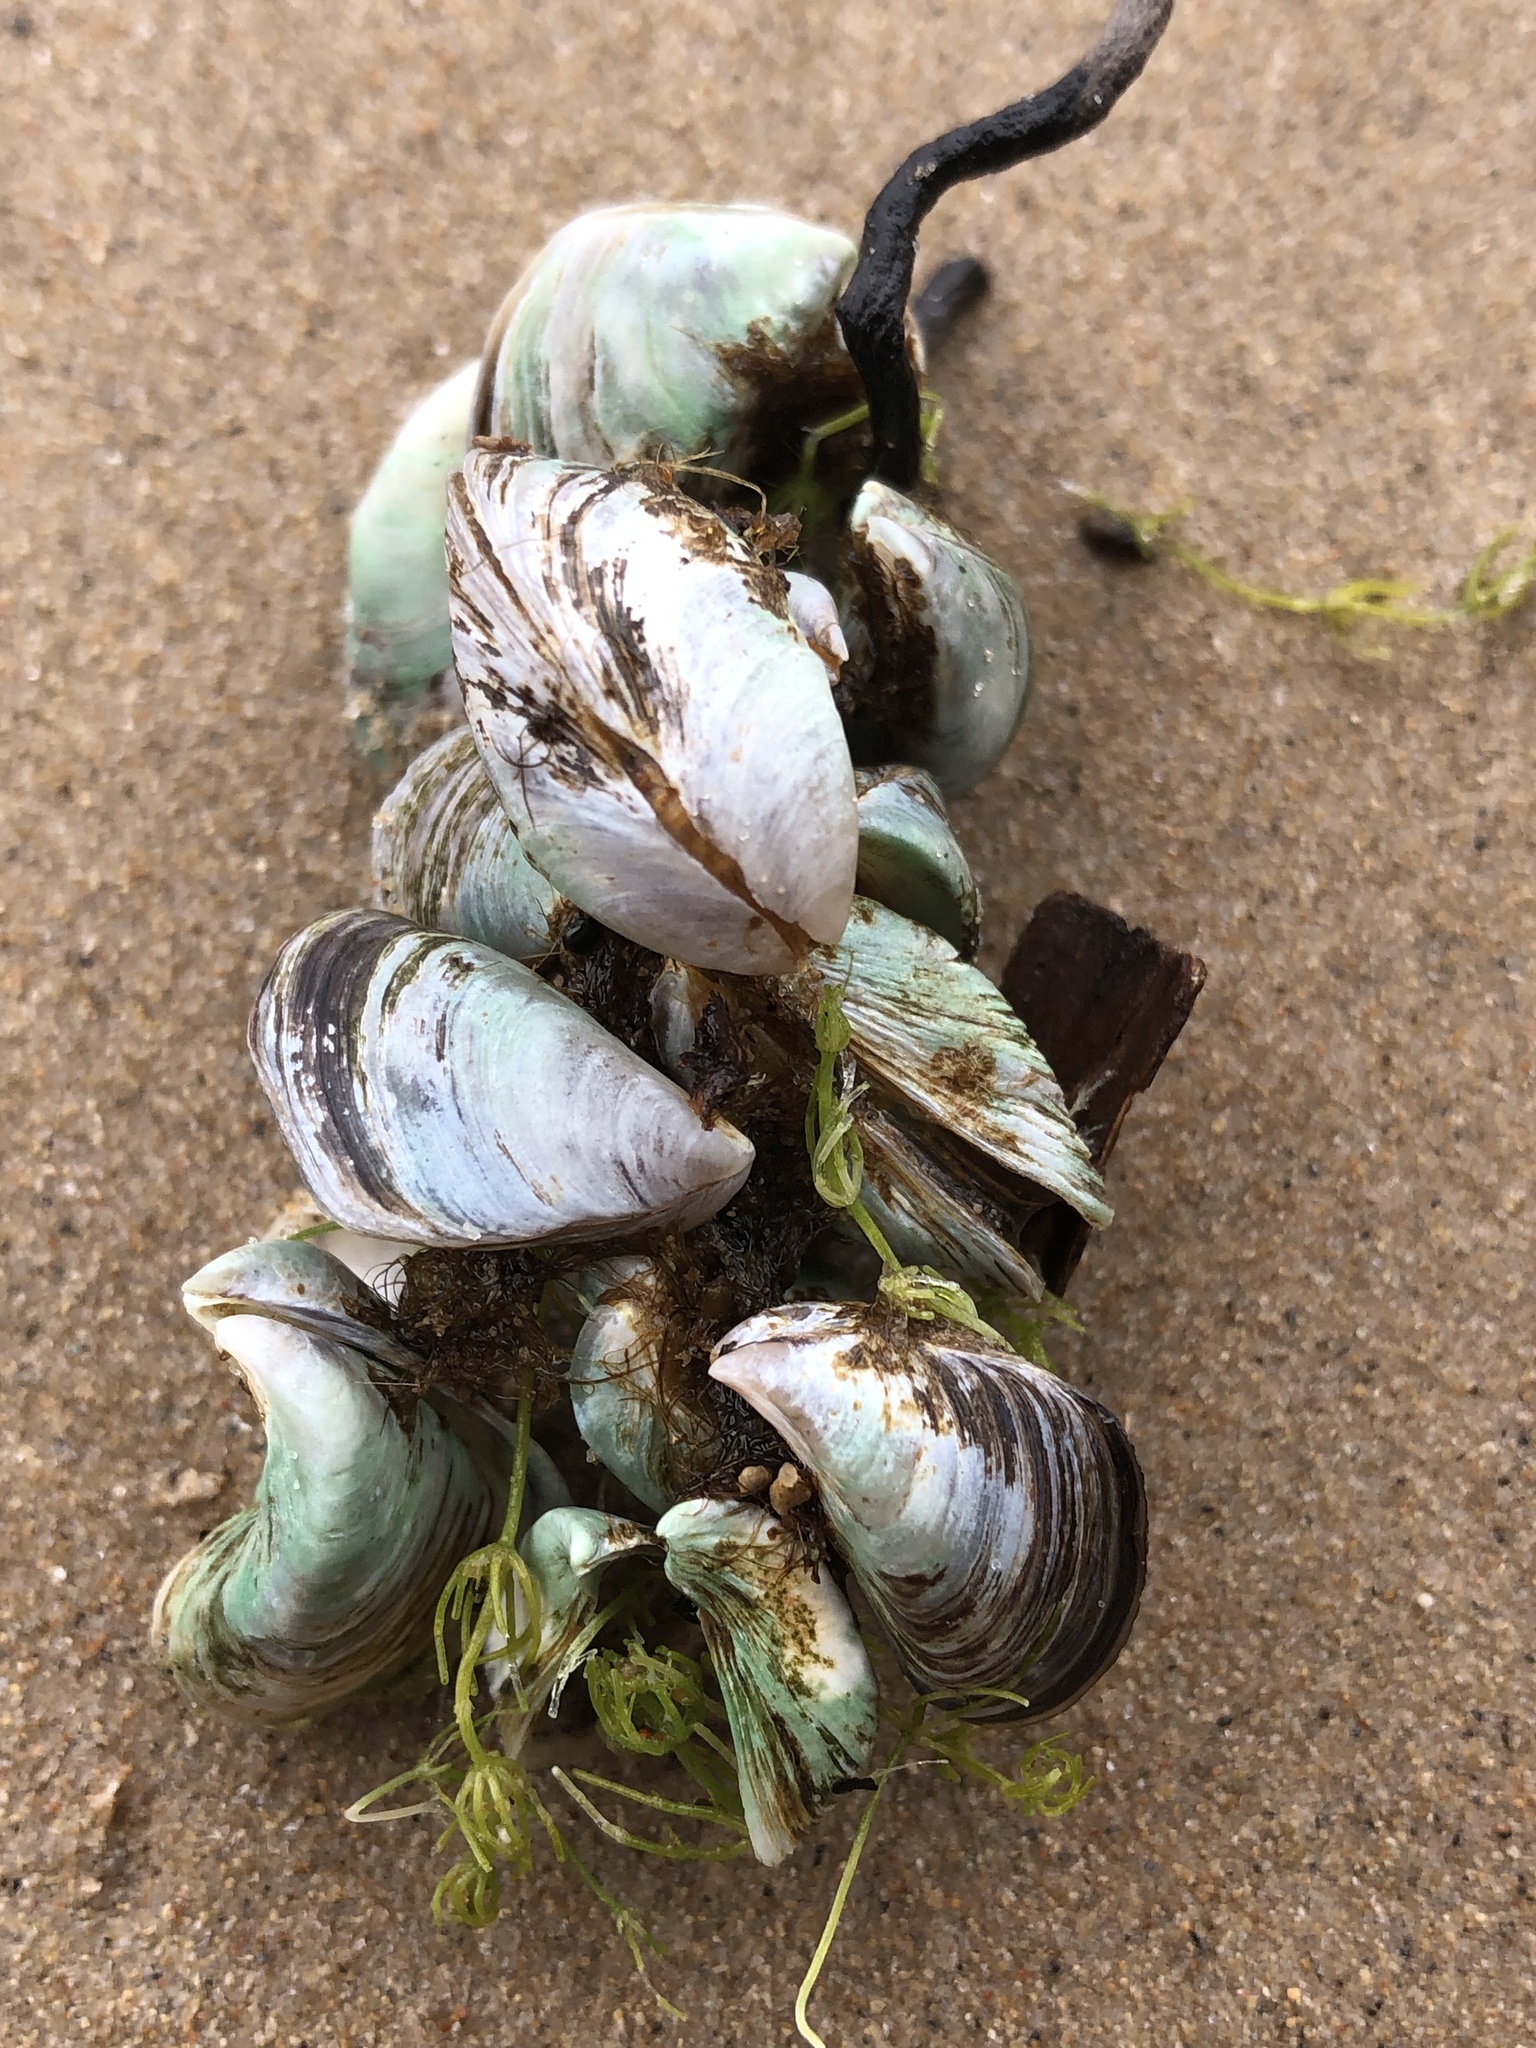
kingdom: Animalia
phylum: Mollusca
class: Bivalvia
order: Myida
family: Dreissenidae
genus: Dreissena
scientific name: Dreissena polymorpha
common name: Zebra mussel
